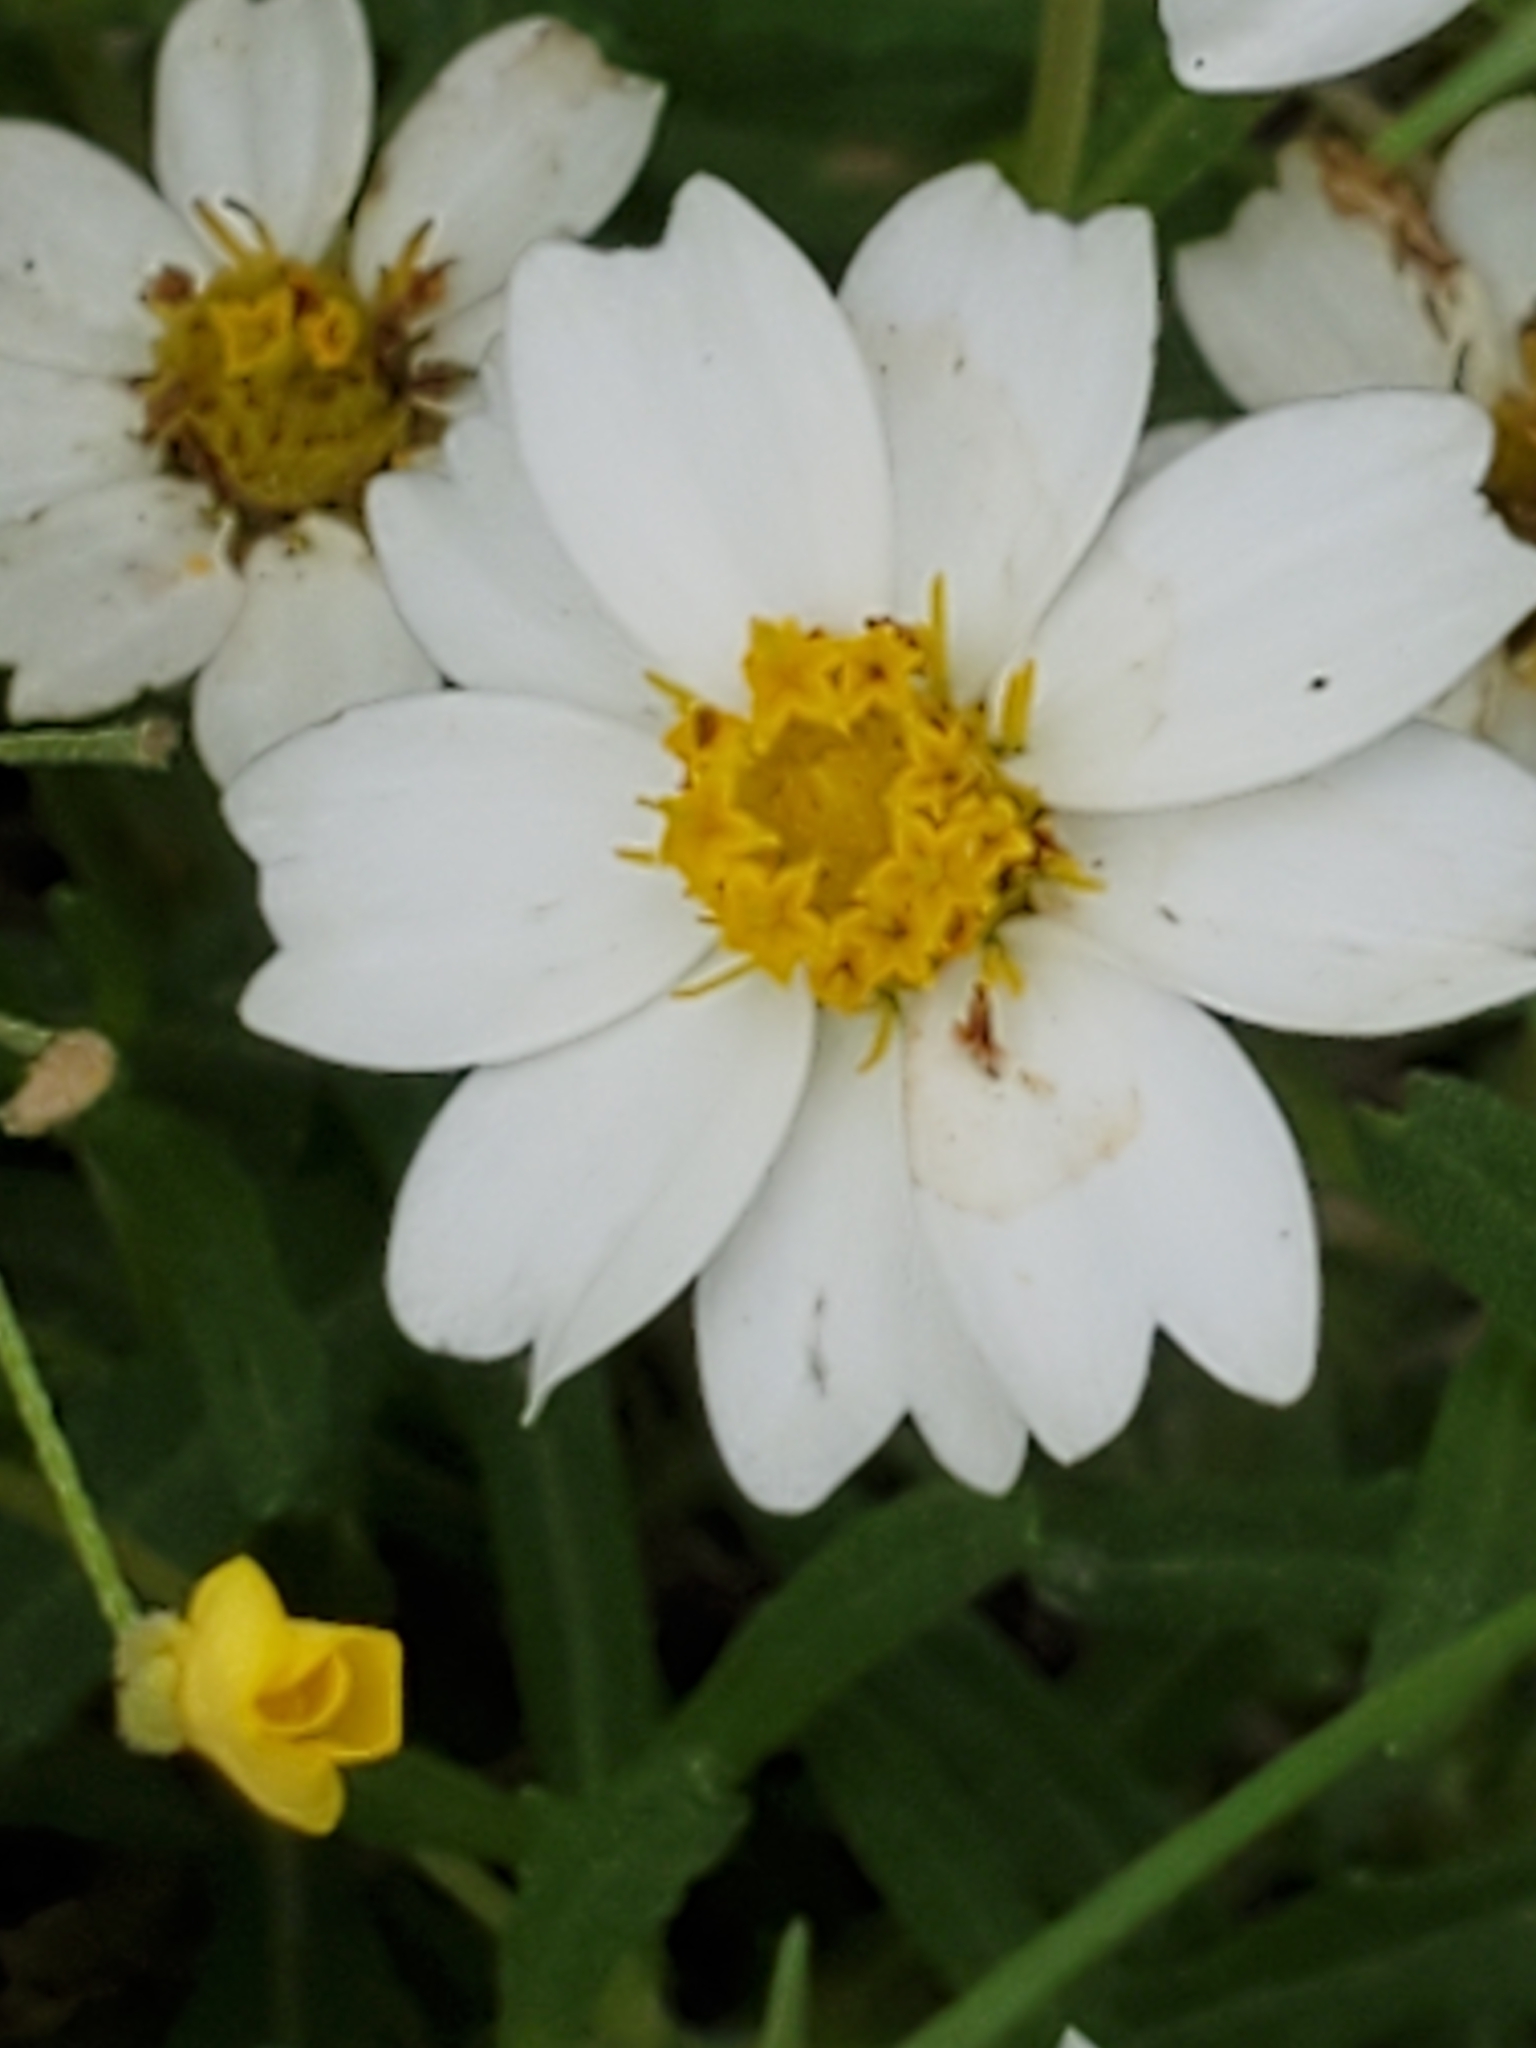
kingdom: Plantae
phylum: Tracheophyta
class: Magnoliopsida
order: Asterales
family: Asteraceae
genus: Melampodium
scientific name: Melampodium leucanthum
